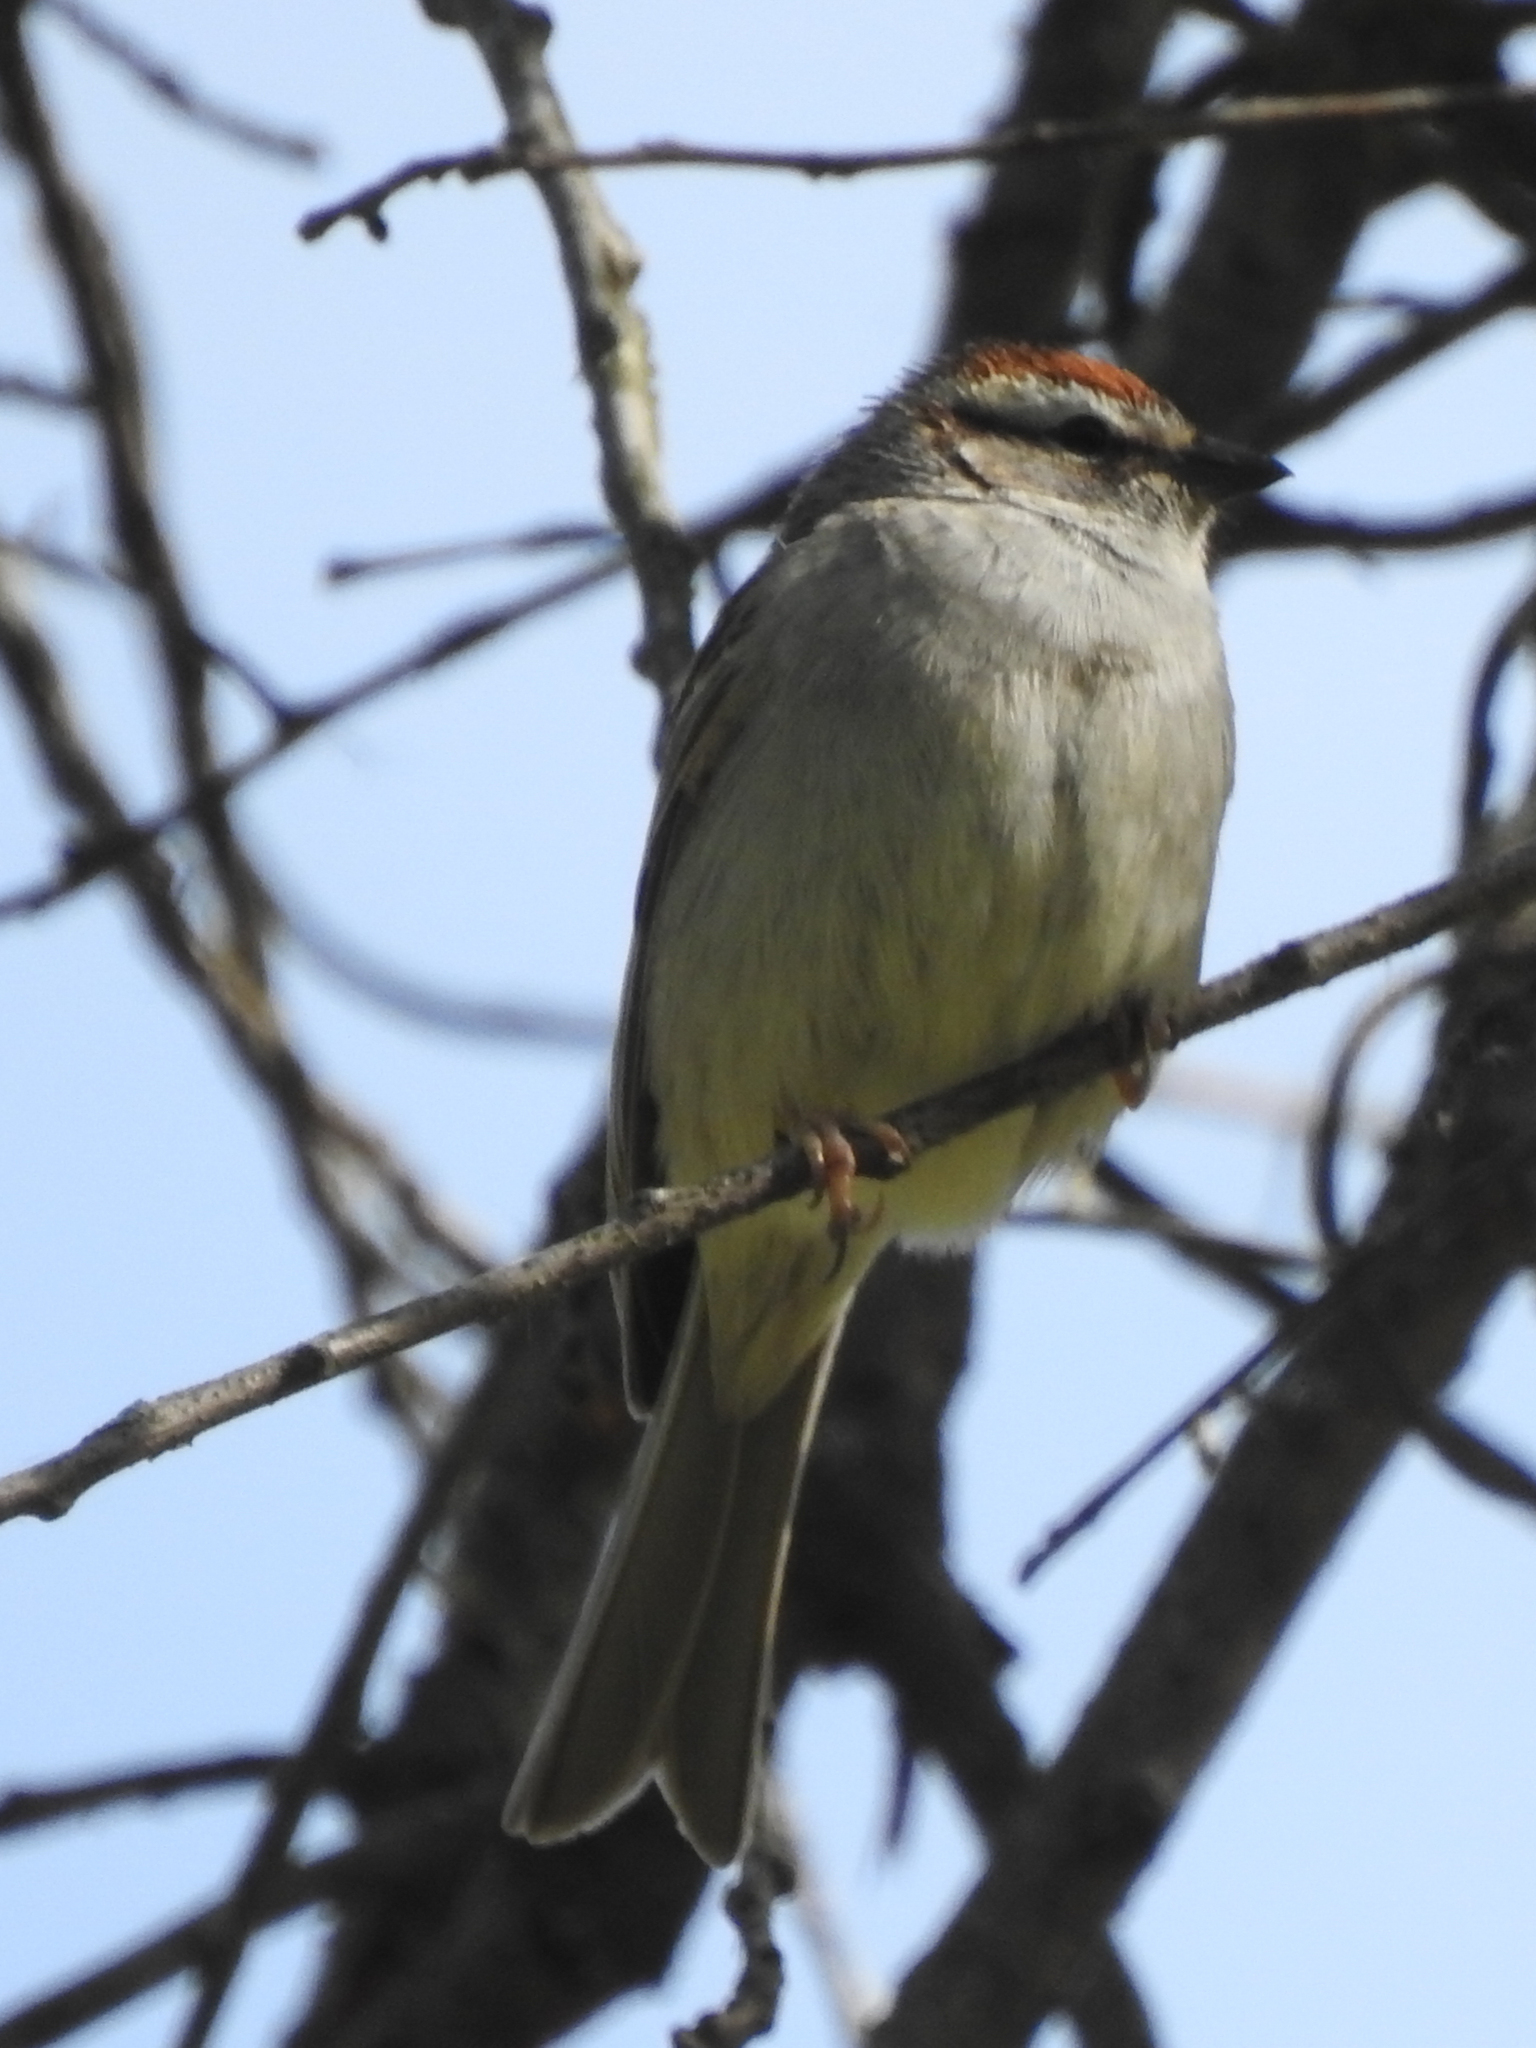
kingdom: Animalia
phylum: Chordata
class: Aves
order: Passeriformes
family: Passerellidae
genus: Spizella
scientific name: Spizella passerina
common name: Chipping sparrow
